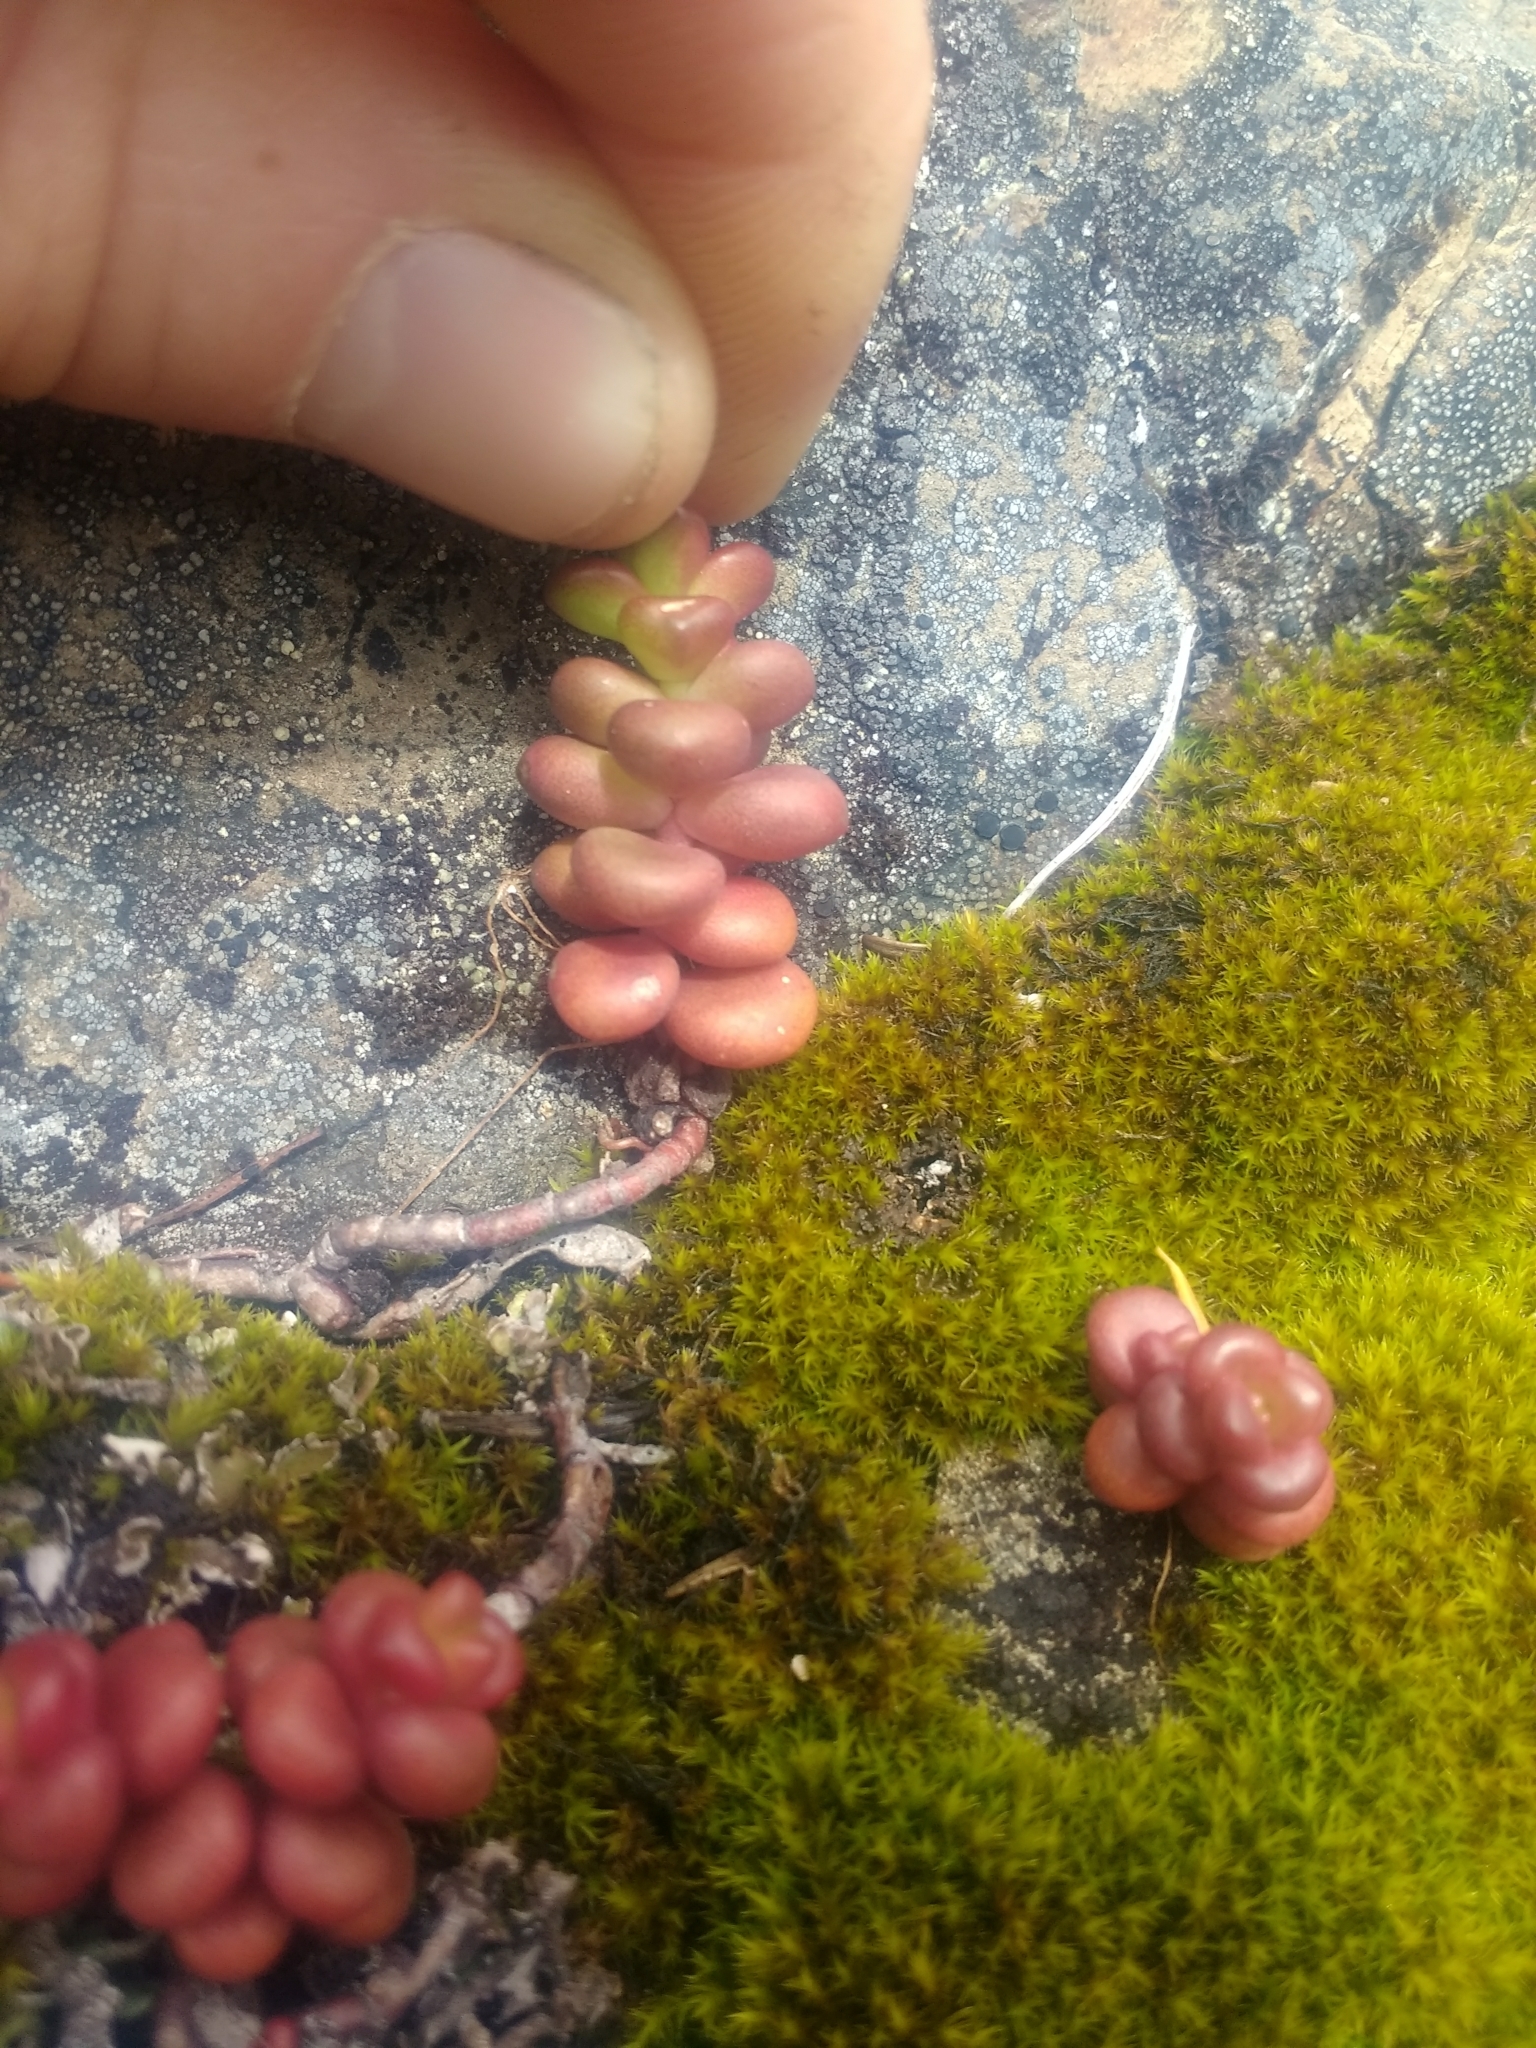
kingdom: Plantae
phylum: Tracheophyta
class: Magnoliopsida
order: Saxifragales
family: Crassulaceae
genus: Sedum
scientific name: Sedum divergens
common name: Cascade stonecrop
